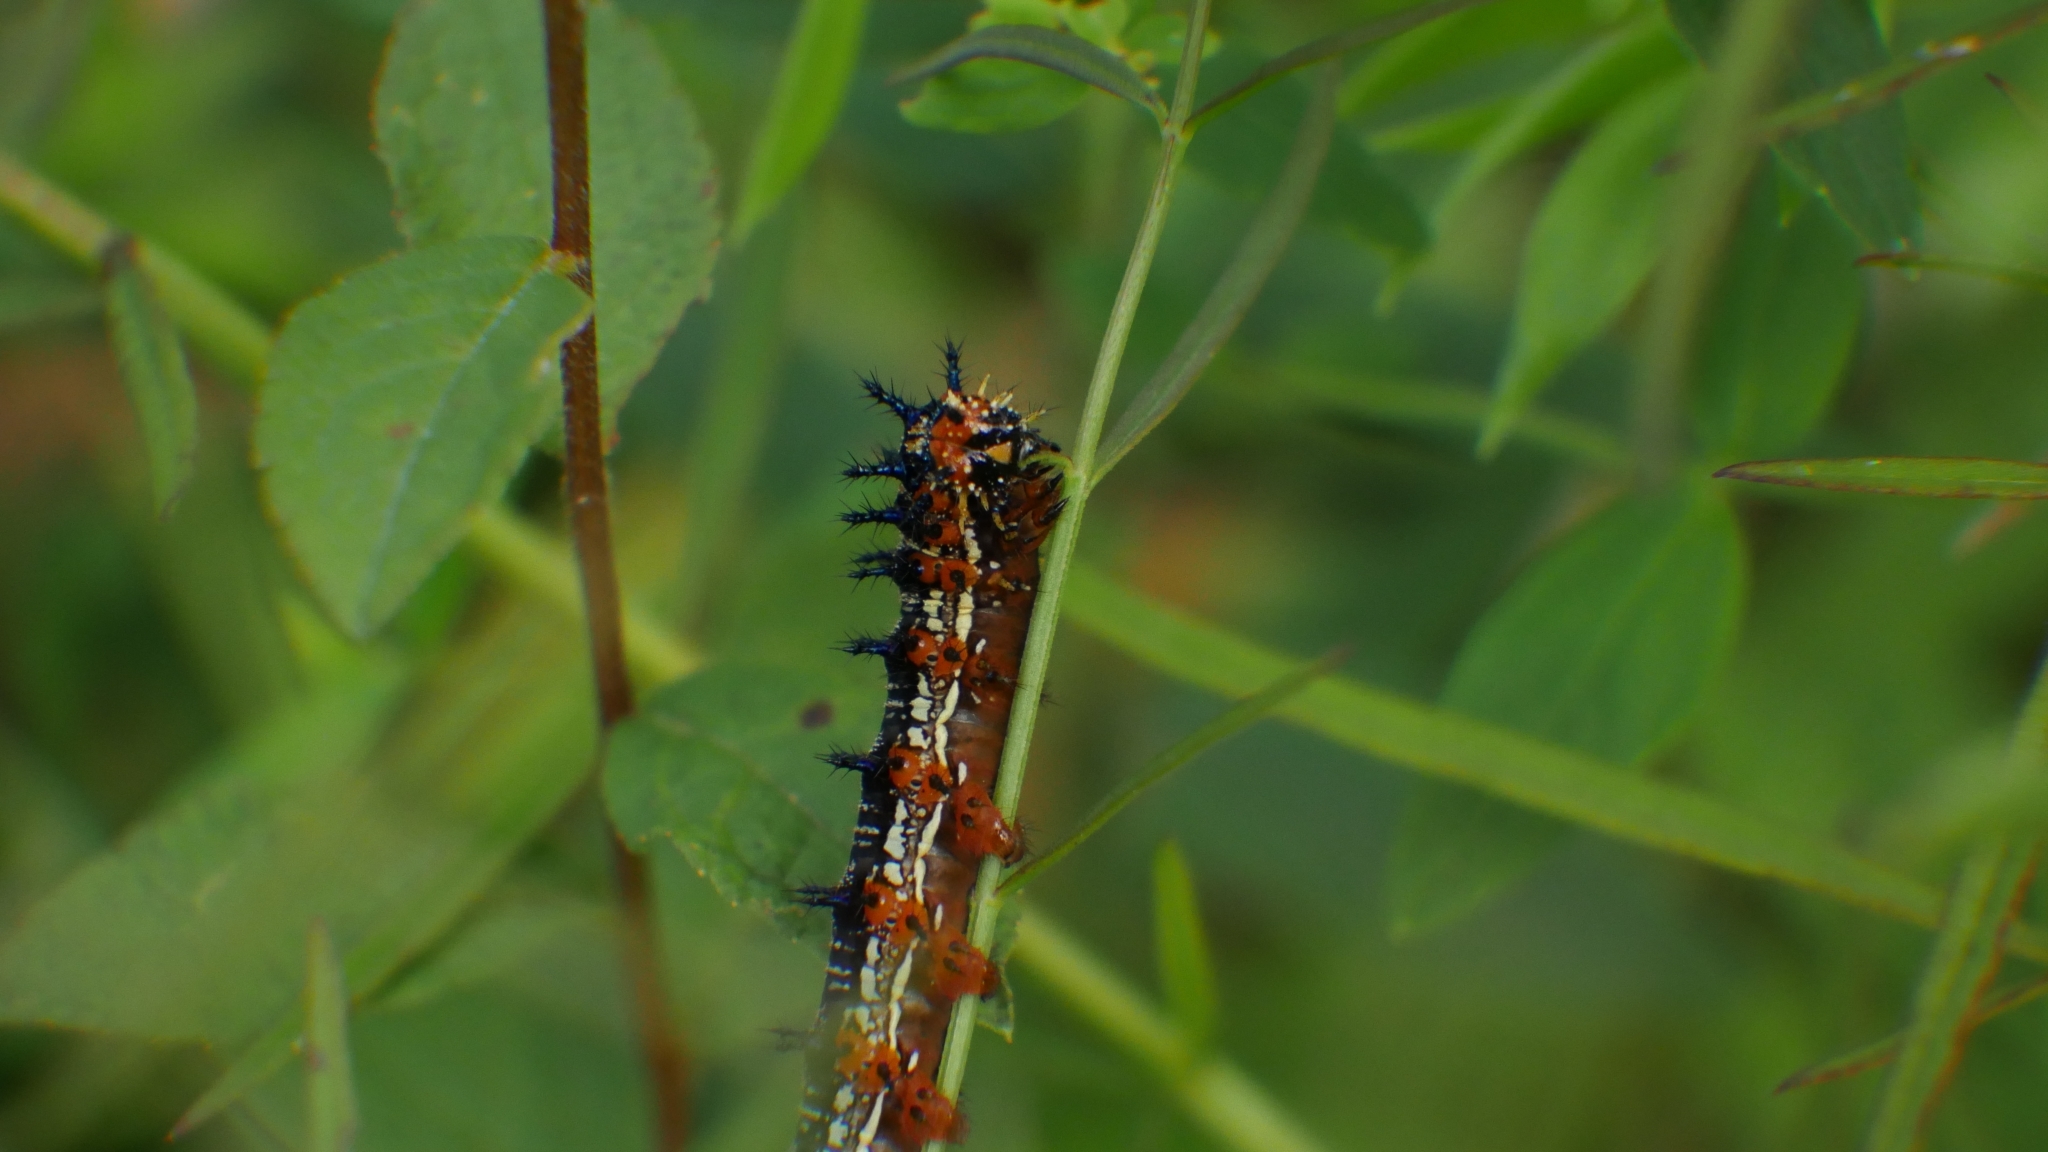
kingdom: Animalia
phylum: Arthropoda
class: Insecta
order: Lepidoptera
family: Nymphalidae
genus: Junonia
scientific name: Junonia coenia
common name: Common buckeye
